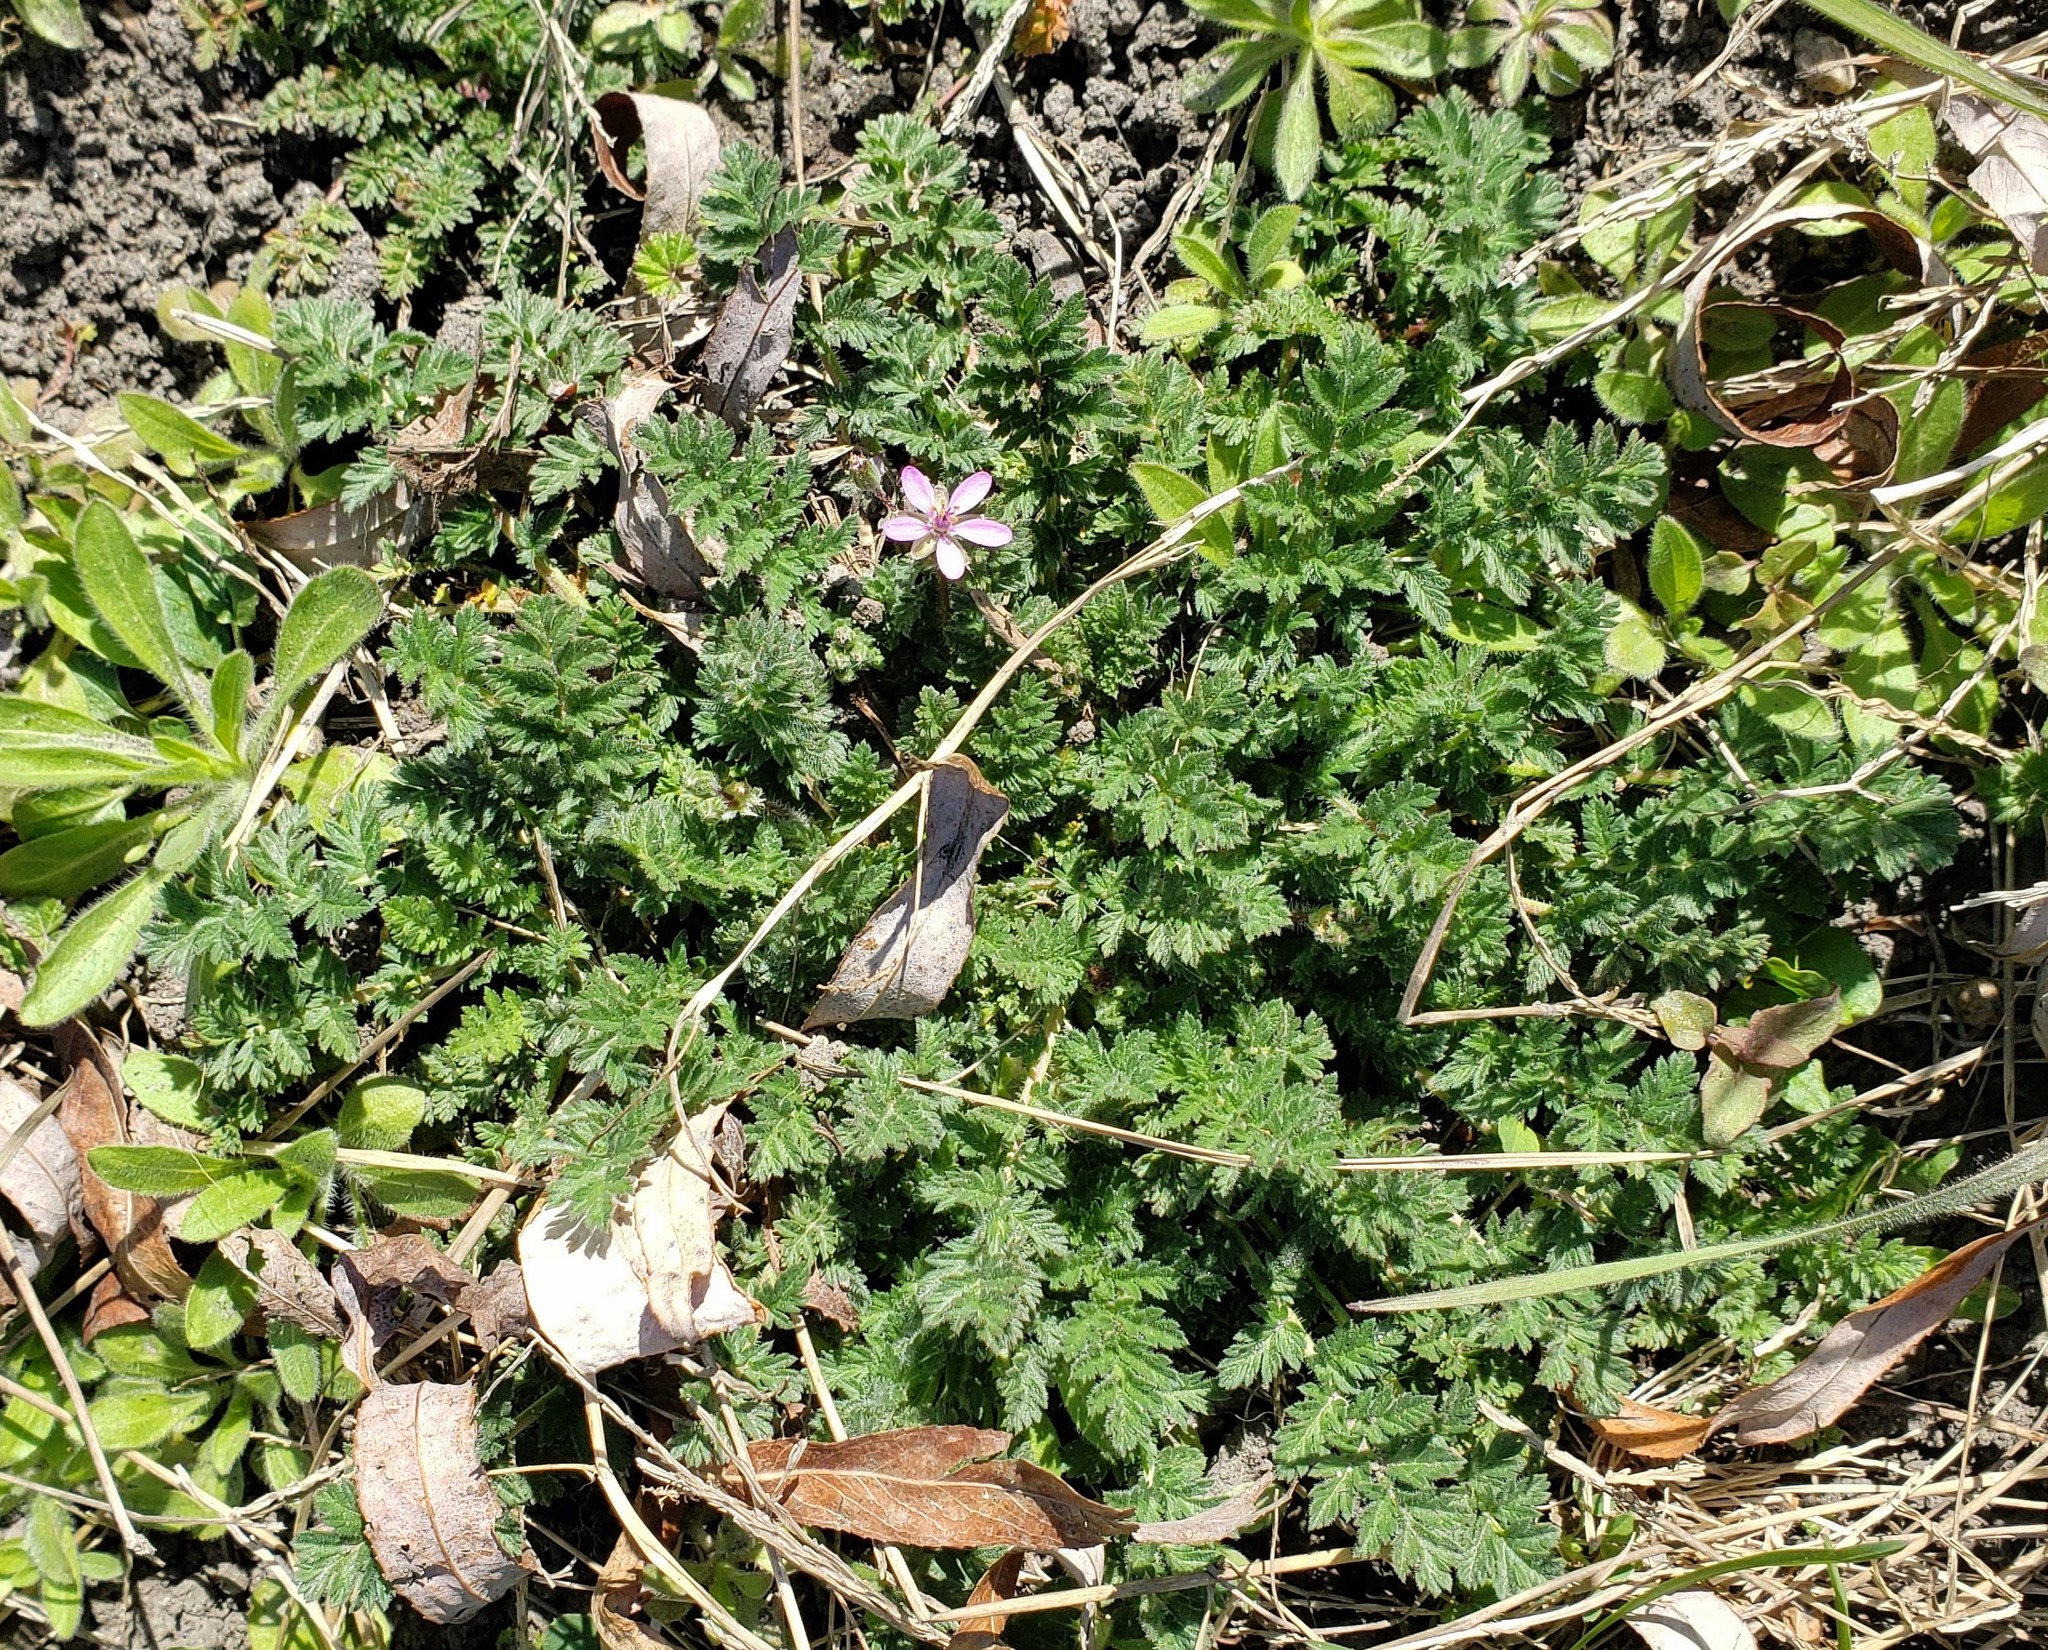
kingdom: Plantae
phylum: Tracheophyta
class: Magnoliopsida
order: Geraniales
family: Geraniaceae
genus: Erodium
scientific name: Erodium cicutarium
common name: Common stork's-bill
